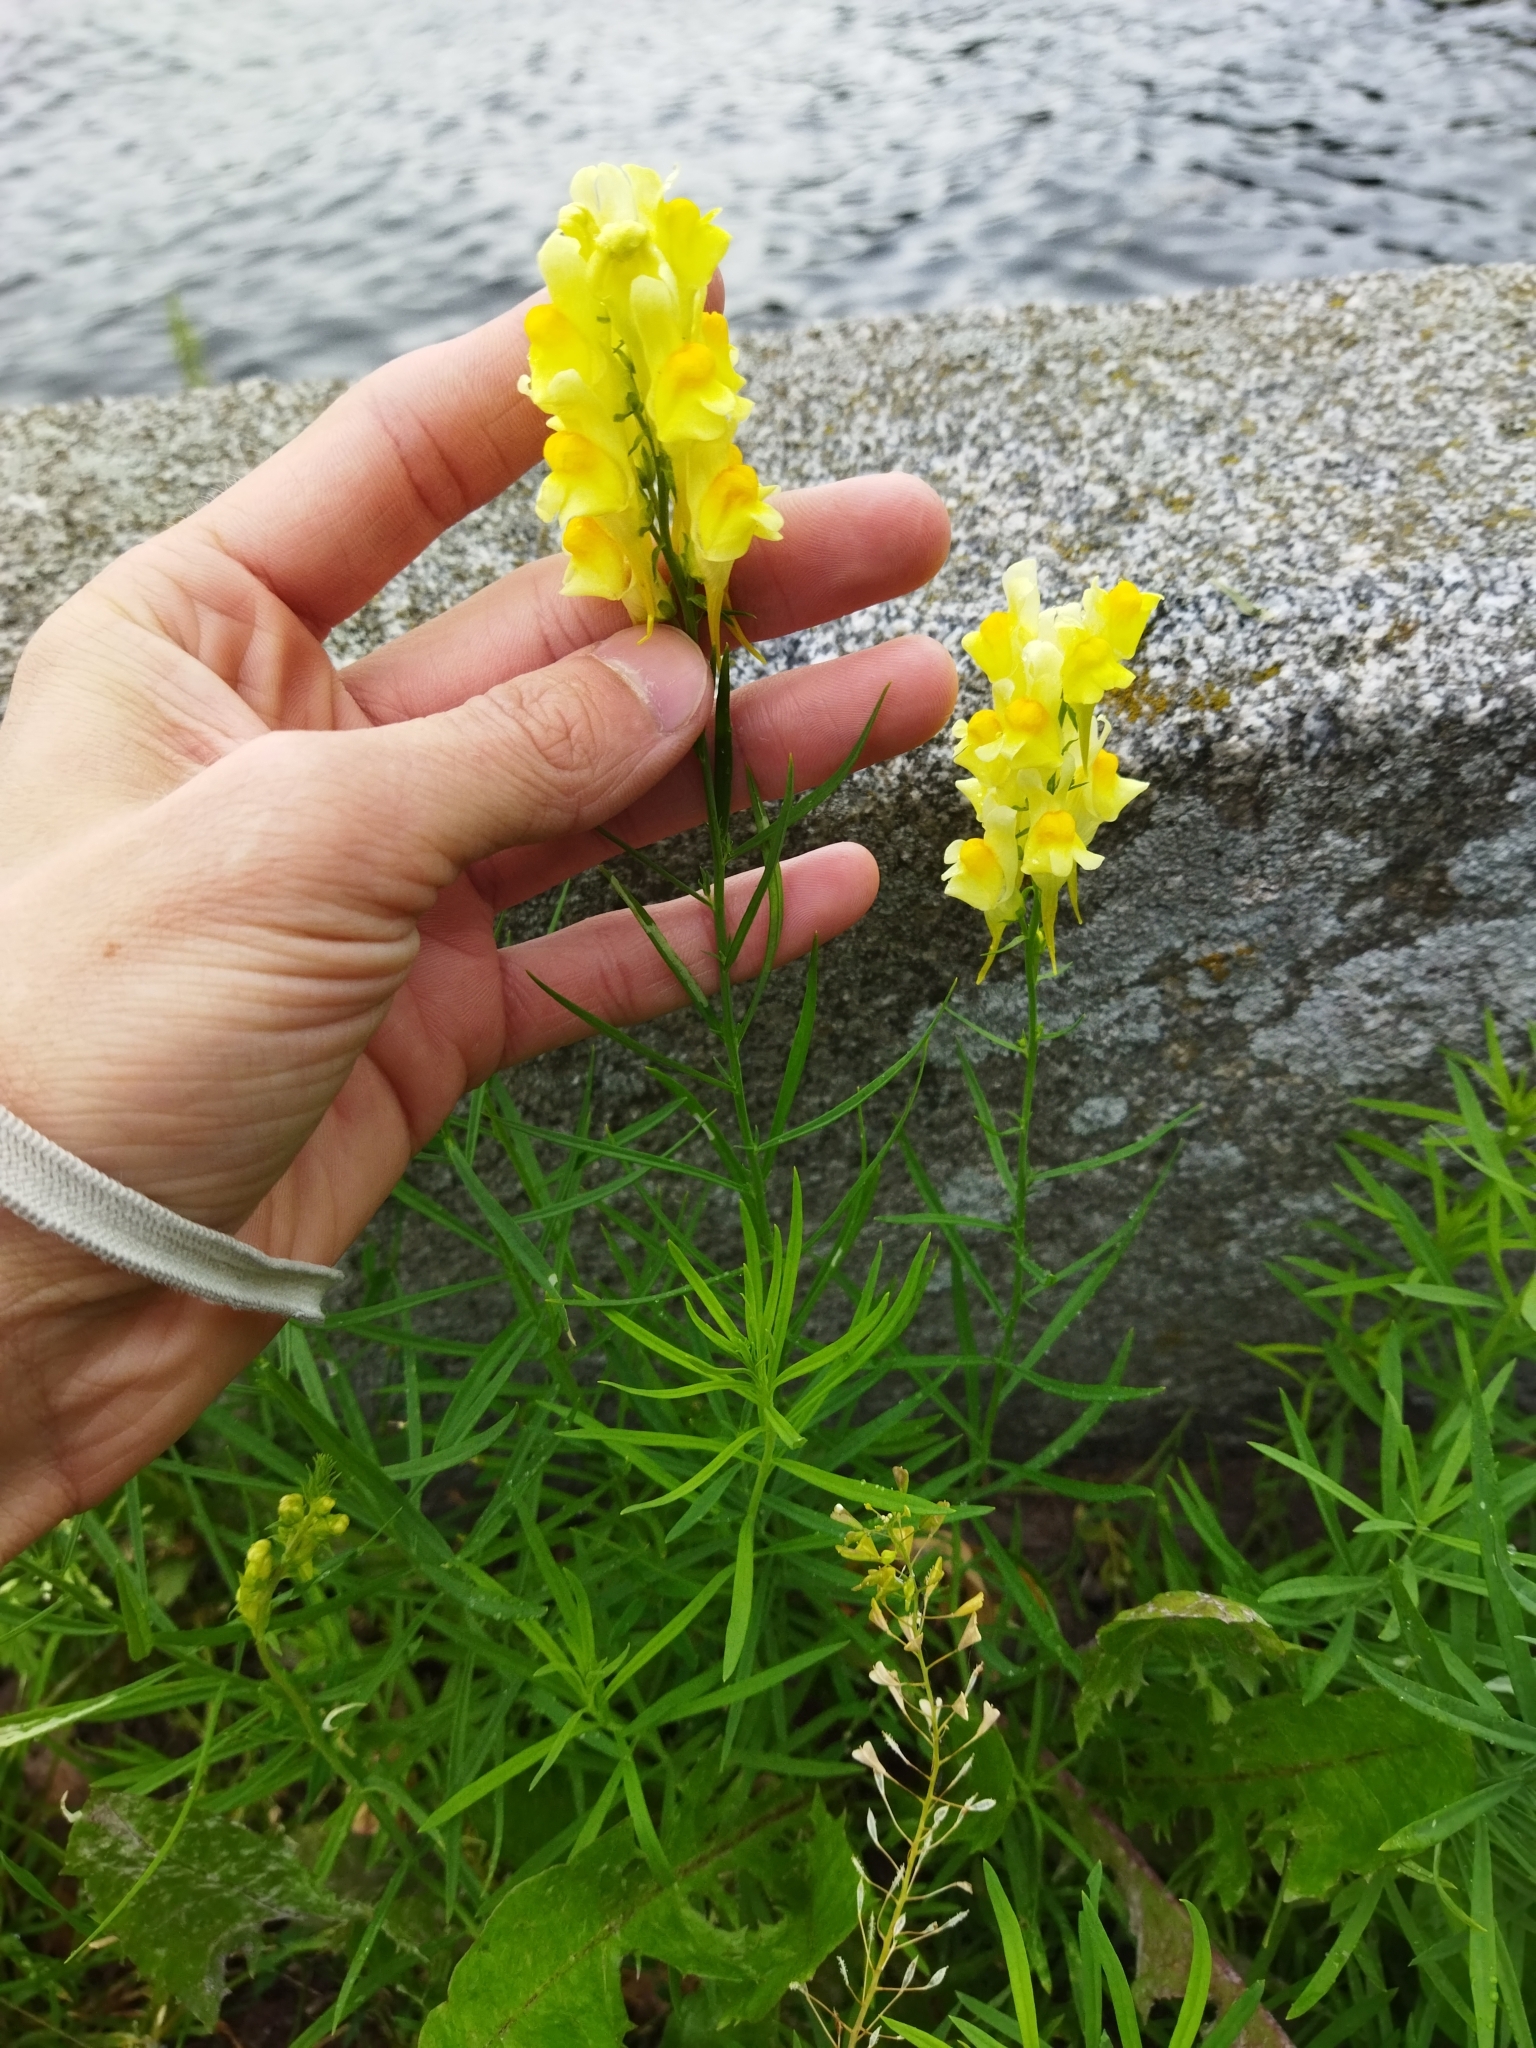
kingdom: Plantae
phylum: Tracheophyta
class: Magnoliopsida
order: Lamiales
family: Plantaginaceae
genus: Linaria
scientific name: Linaria vulgaris
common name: Butter and eggs
